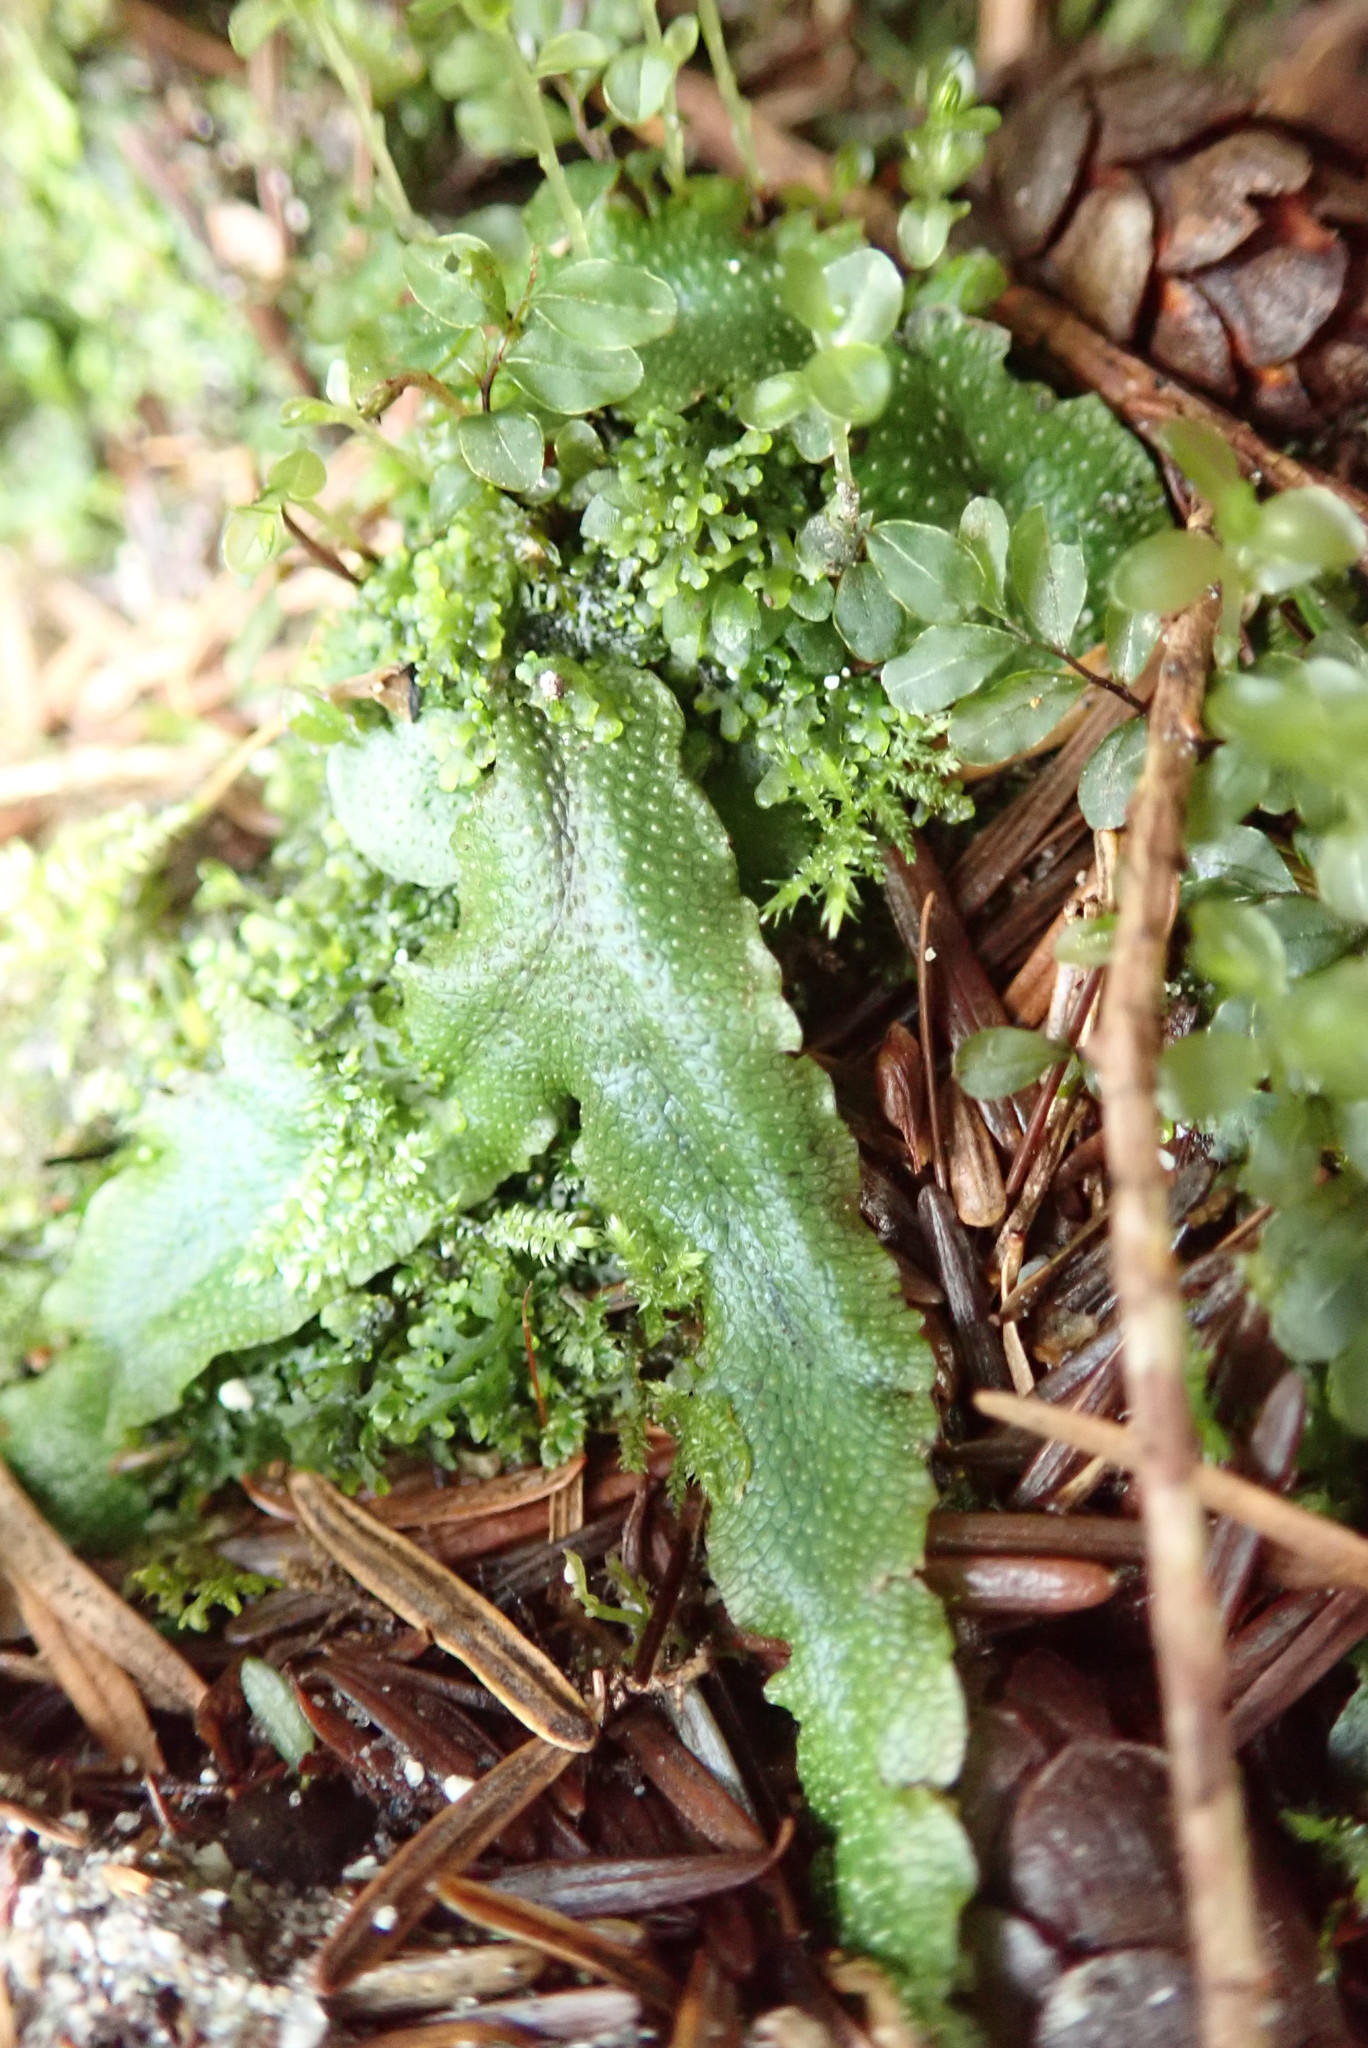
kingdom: Plantae
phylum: Marchantiophyta
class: Marchantiopsida
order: Marchantiales
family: Conocephalaceae
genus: Conocephalum
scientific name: Conocephalum salebrosum
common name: Cat-tongue liverwort
